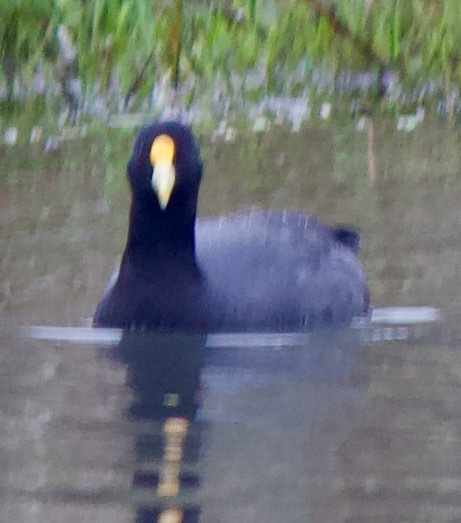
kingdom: Animalia
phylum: Chordata
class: Aves
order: Gruiformes
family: Rallidae
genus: Fulica
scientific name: Fulica leucoptera
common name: White-winged coot
